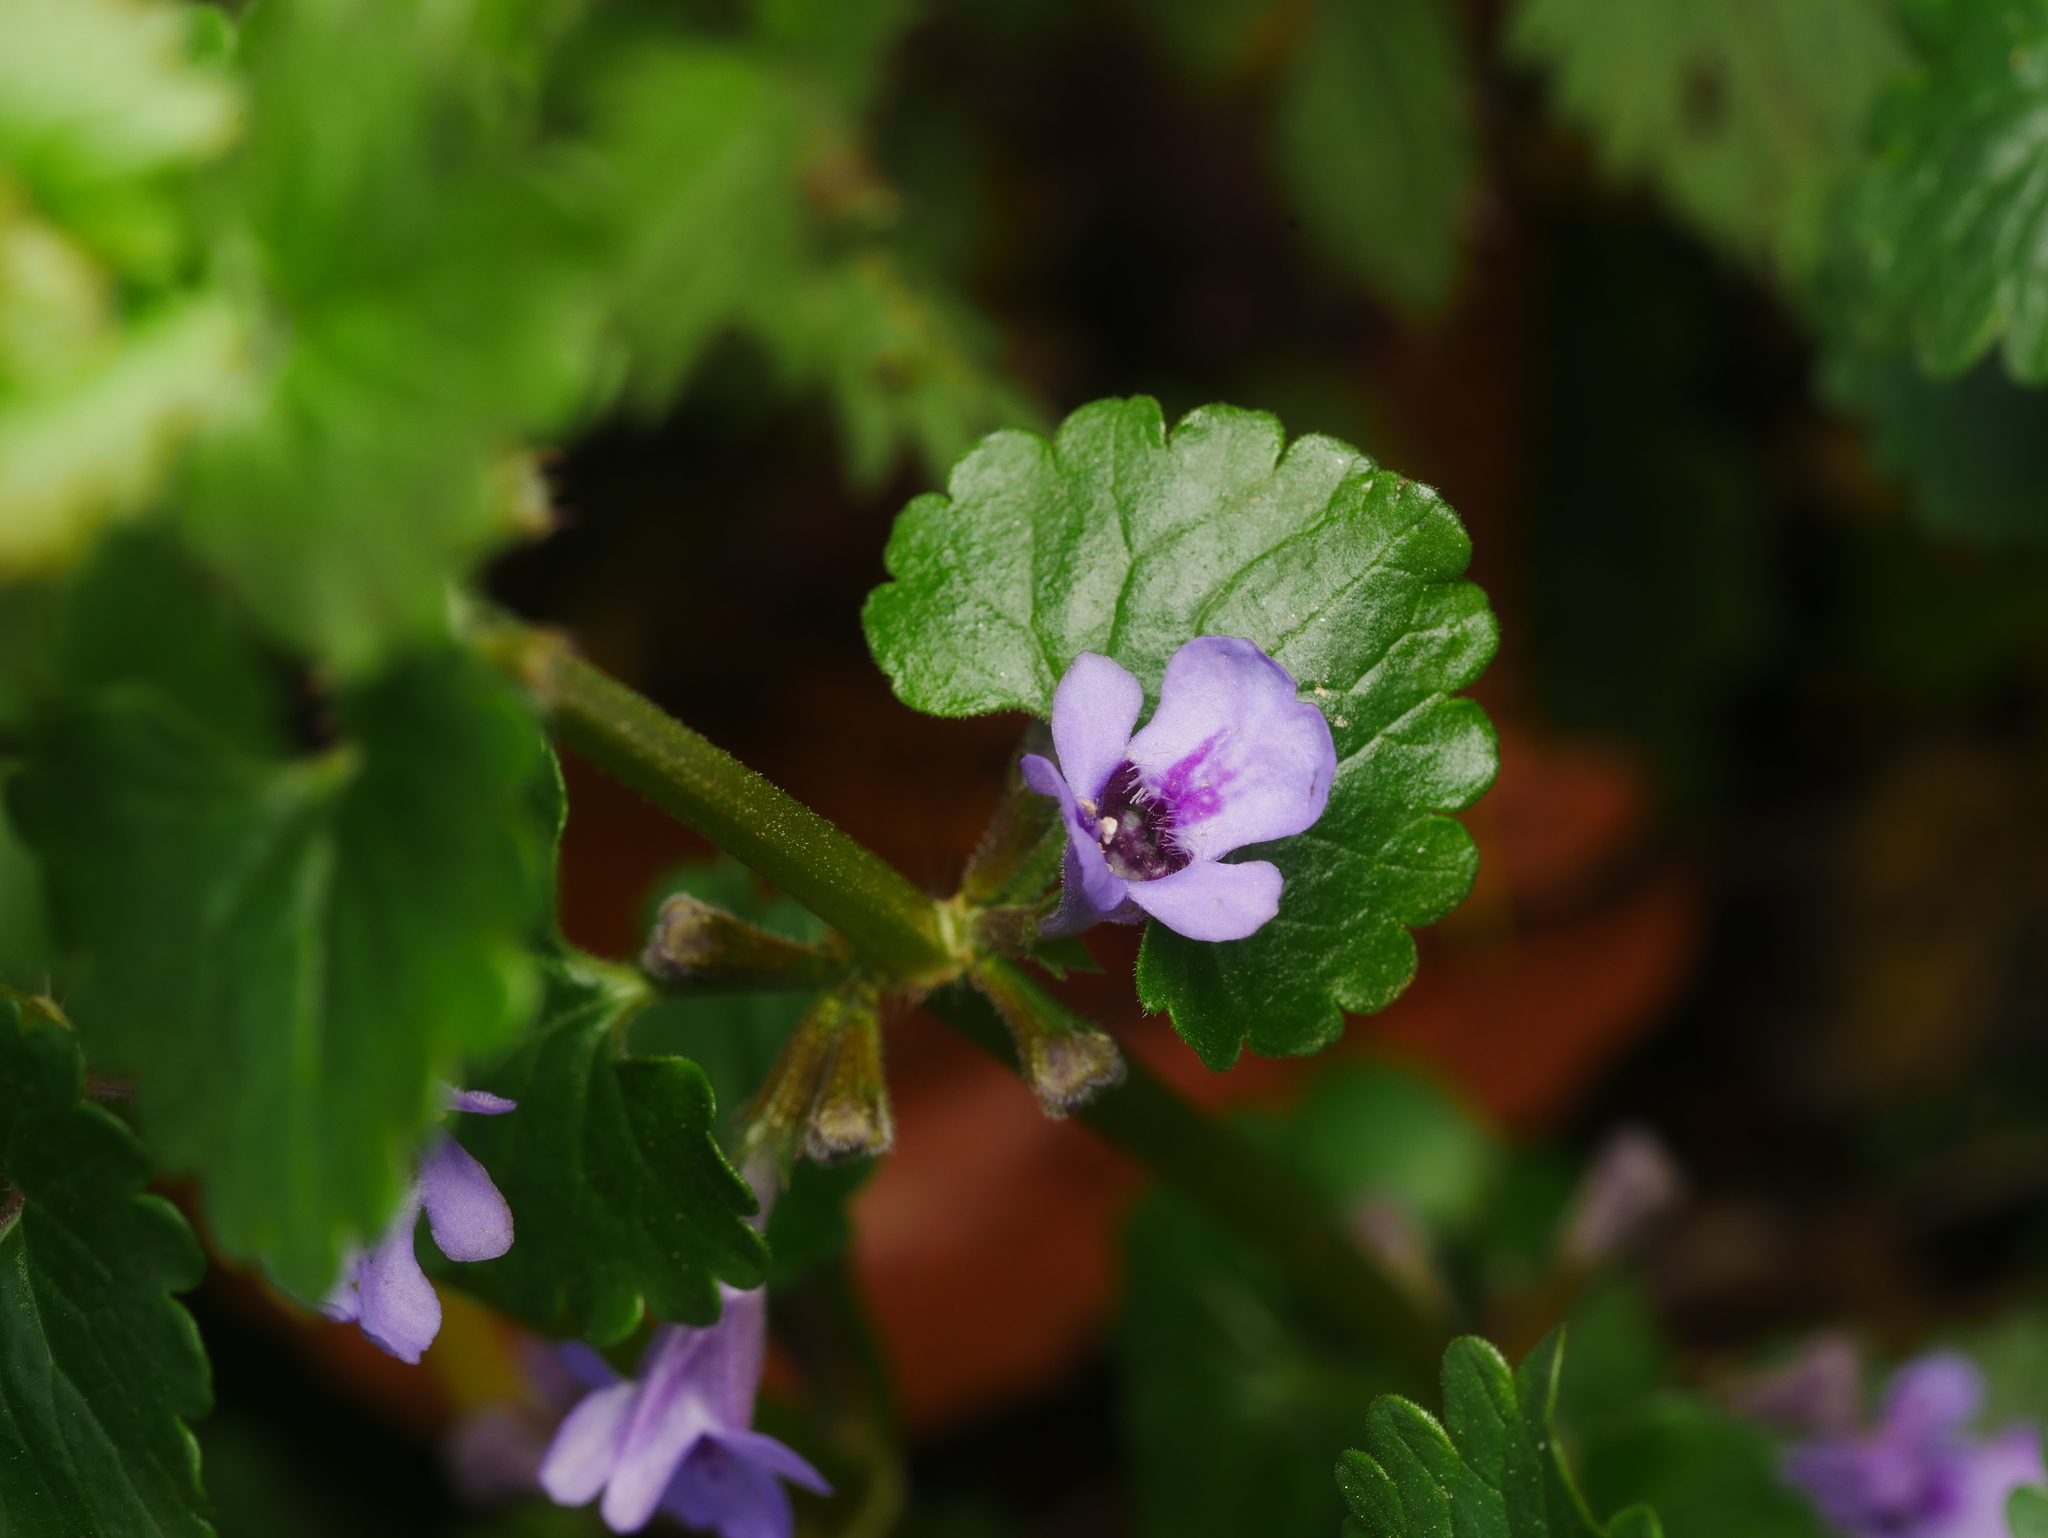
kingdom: Plantae
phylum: Tracheophyta
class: Magnoliopsida
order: Lamiales
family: Lamiaceae
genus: Glechoma
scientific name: Glechoma hederacea
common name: Ground ivy
